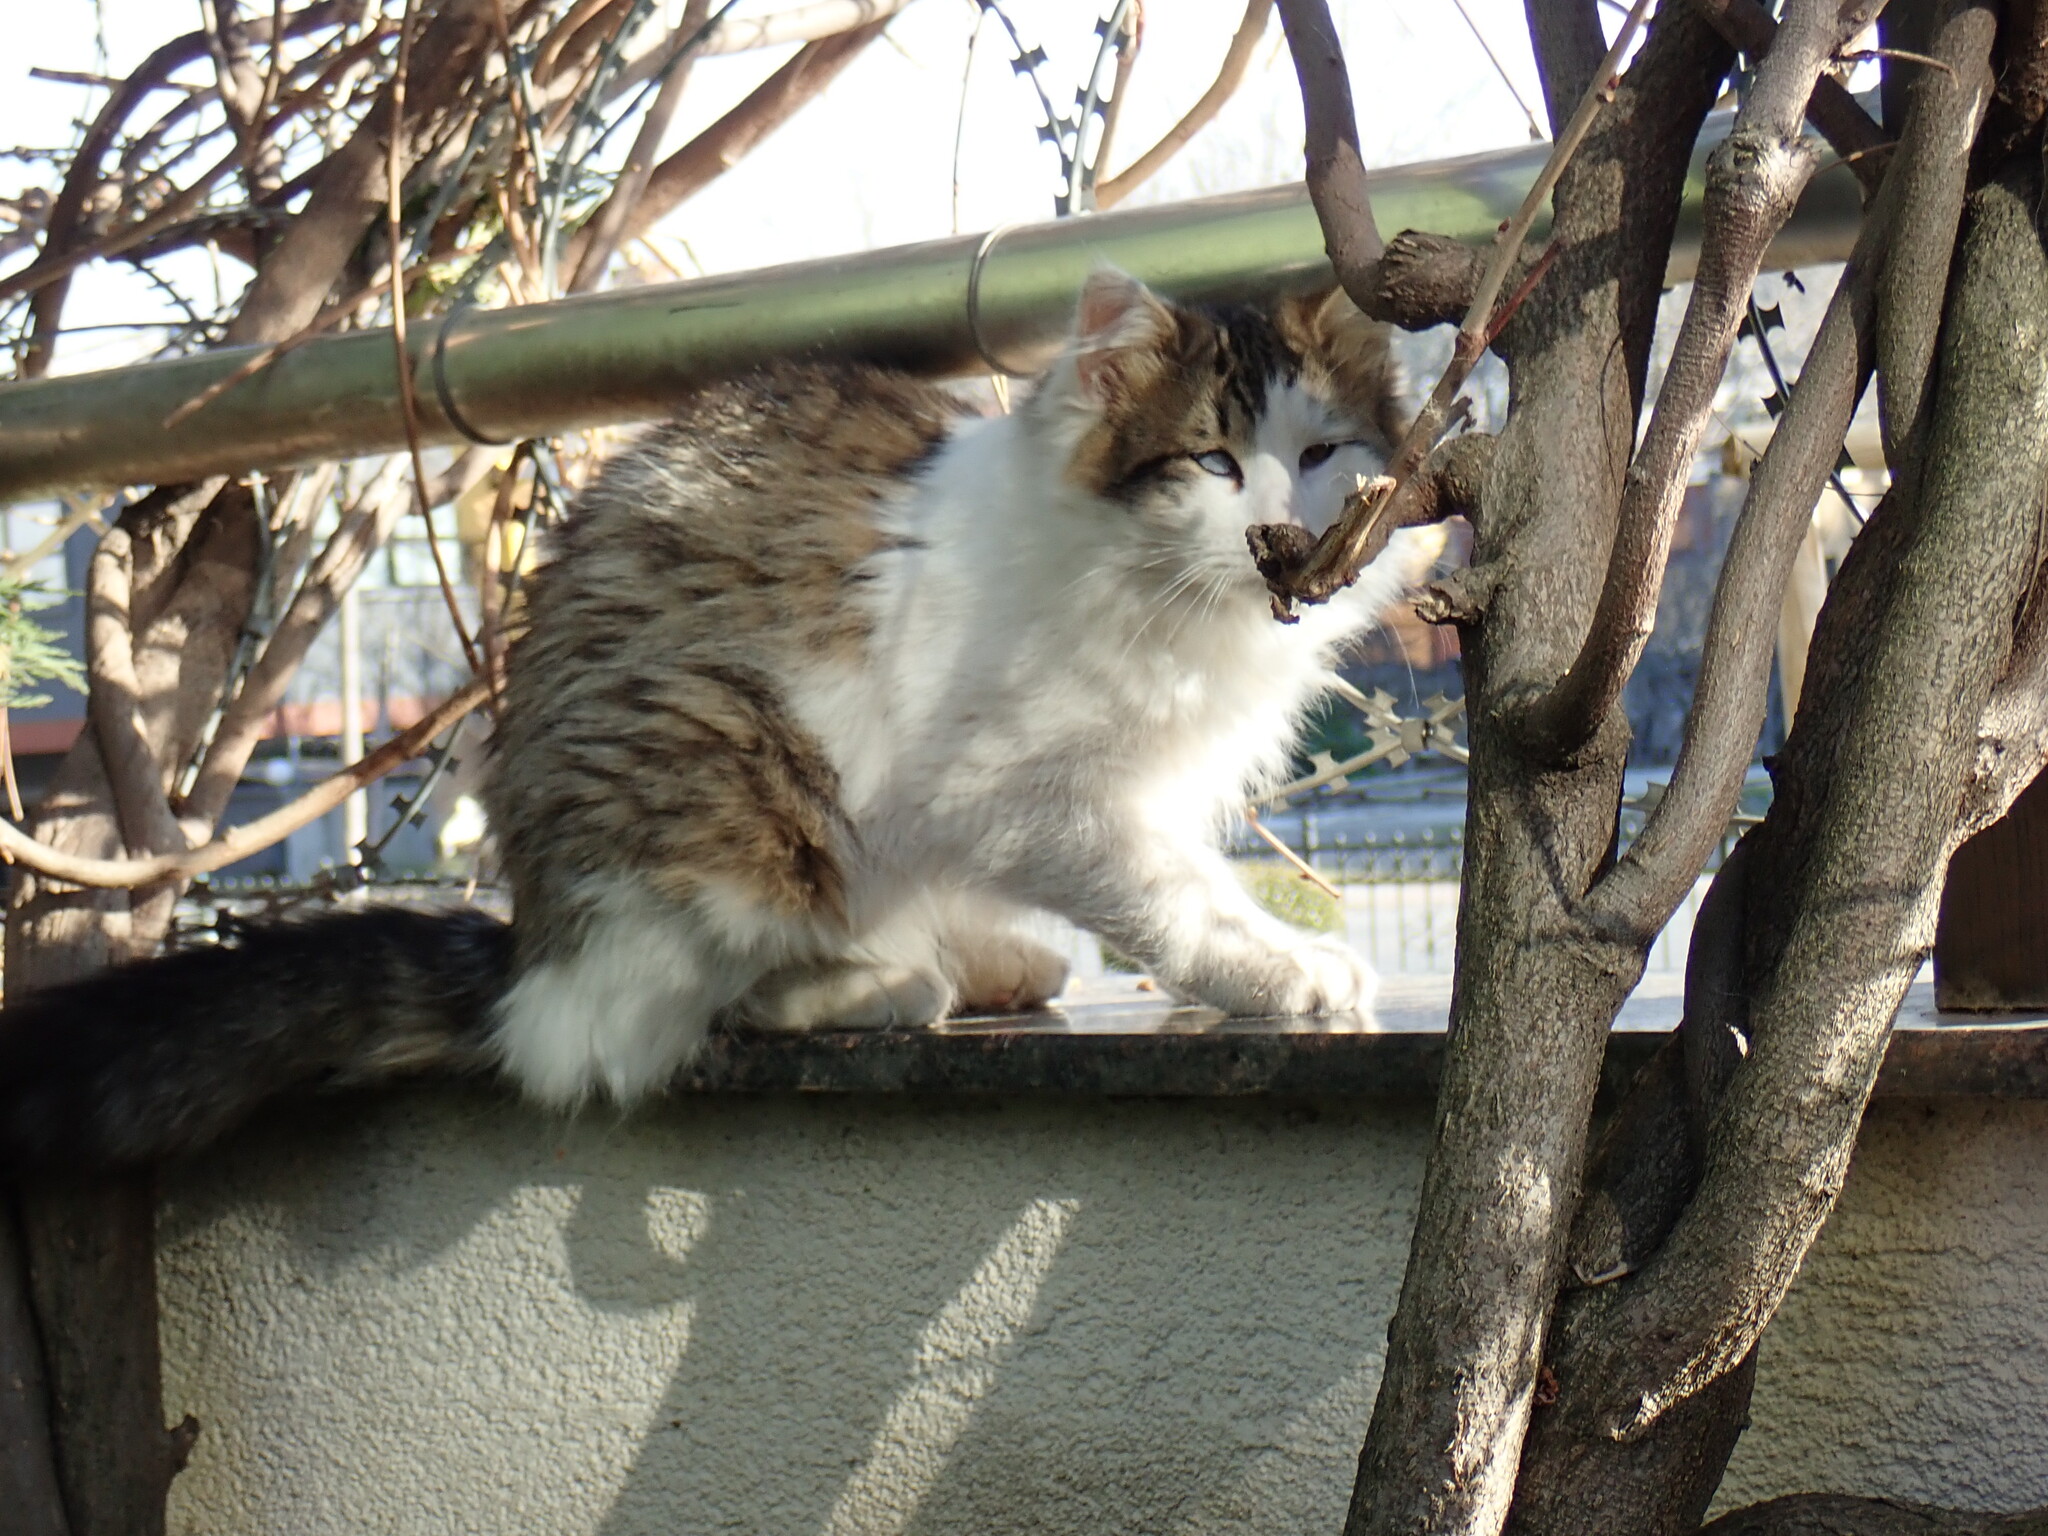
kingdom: Animalia
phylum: Chordata
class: Mammalia
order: Carnivora
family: Felidae
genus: Felis
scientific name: Felis catus
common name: Domestic cat
